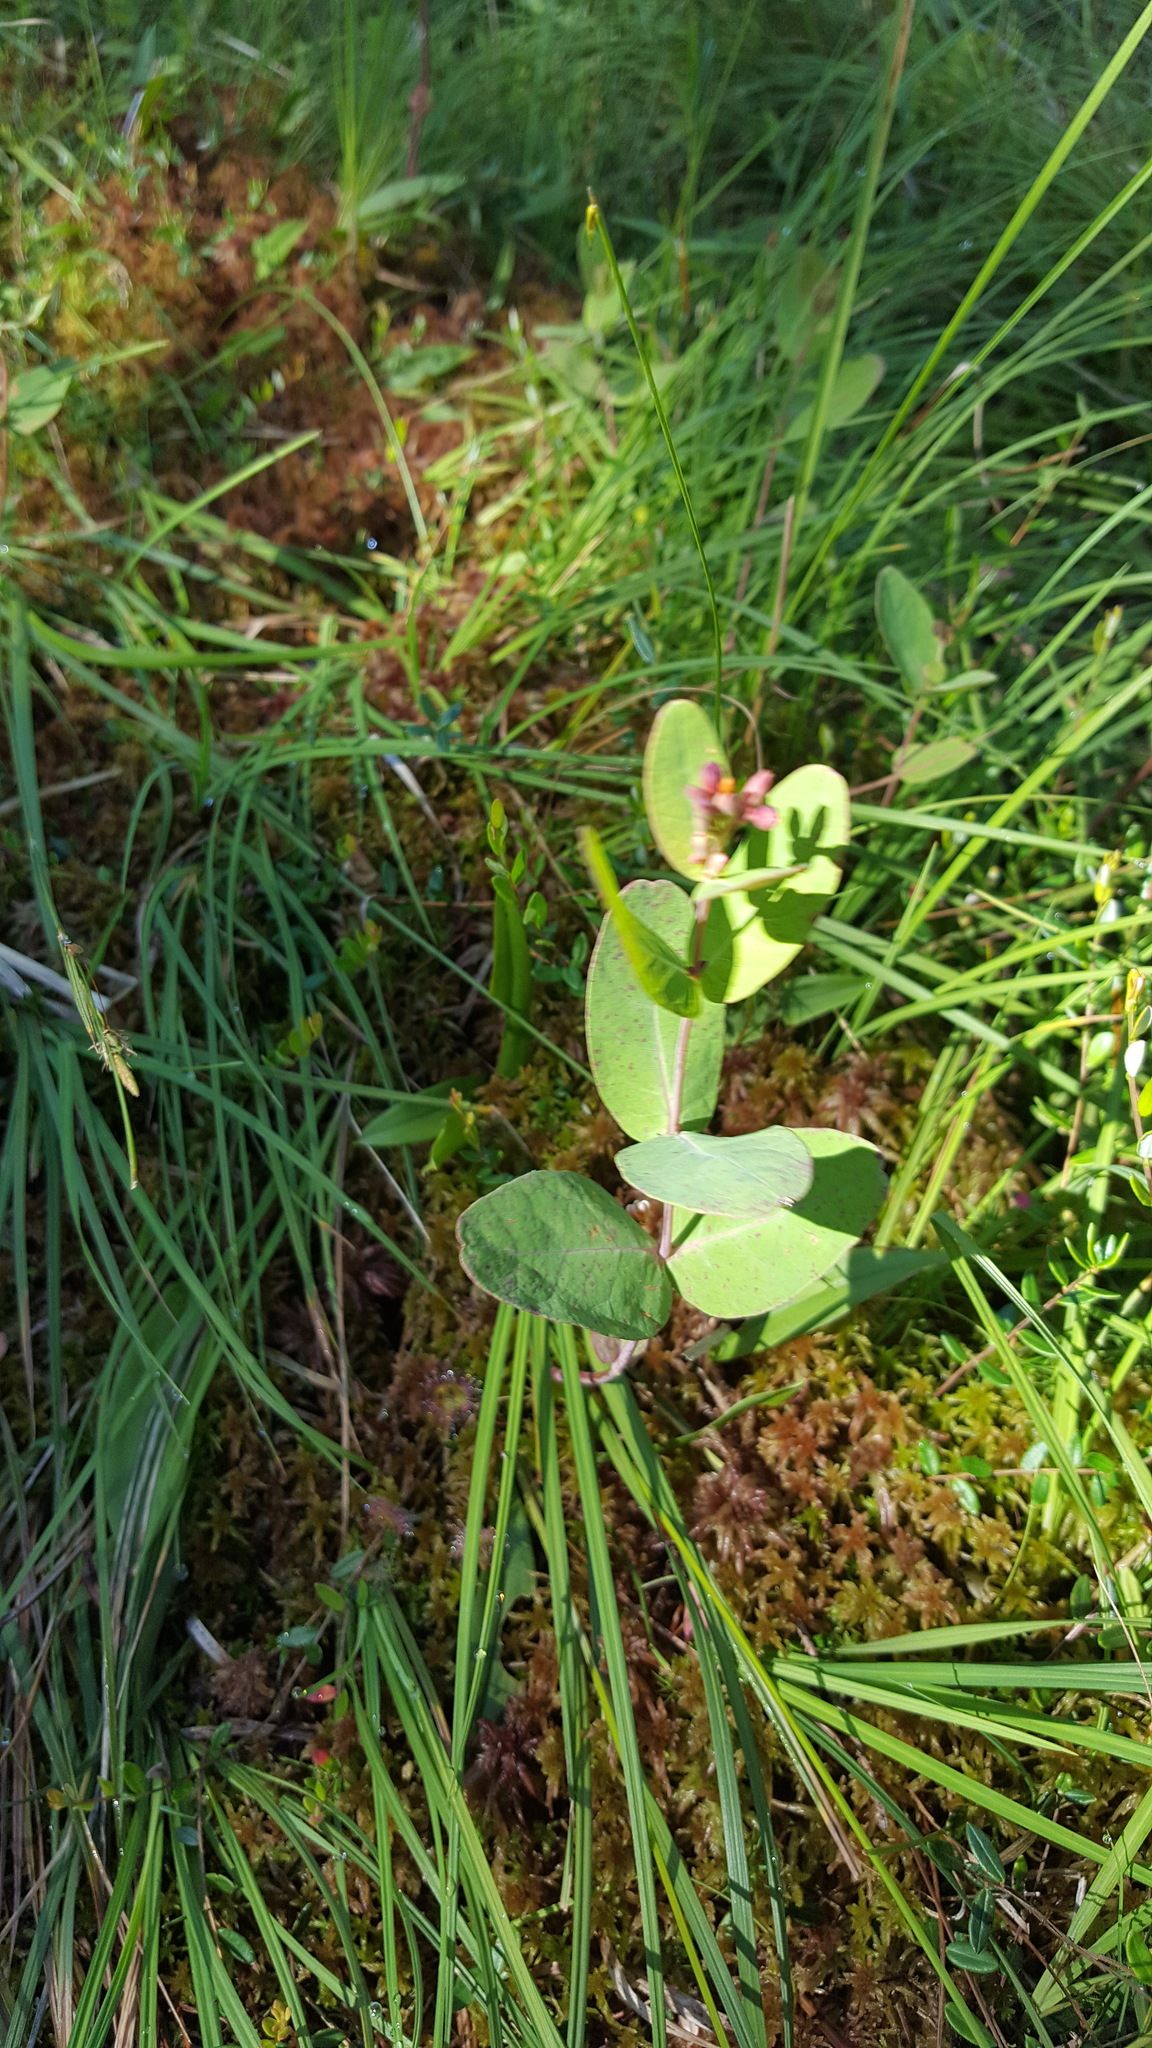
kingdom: Plantae
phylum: Tracheophyta
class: Magnoliopsida
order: Malpighiales
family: Hypericaceae
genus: Triadenum
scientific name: Triadenum fraseri
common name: Fraser's marsh st. johnswort
